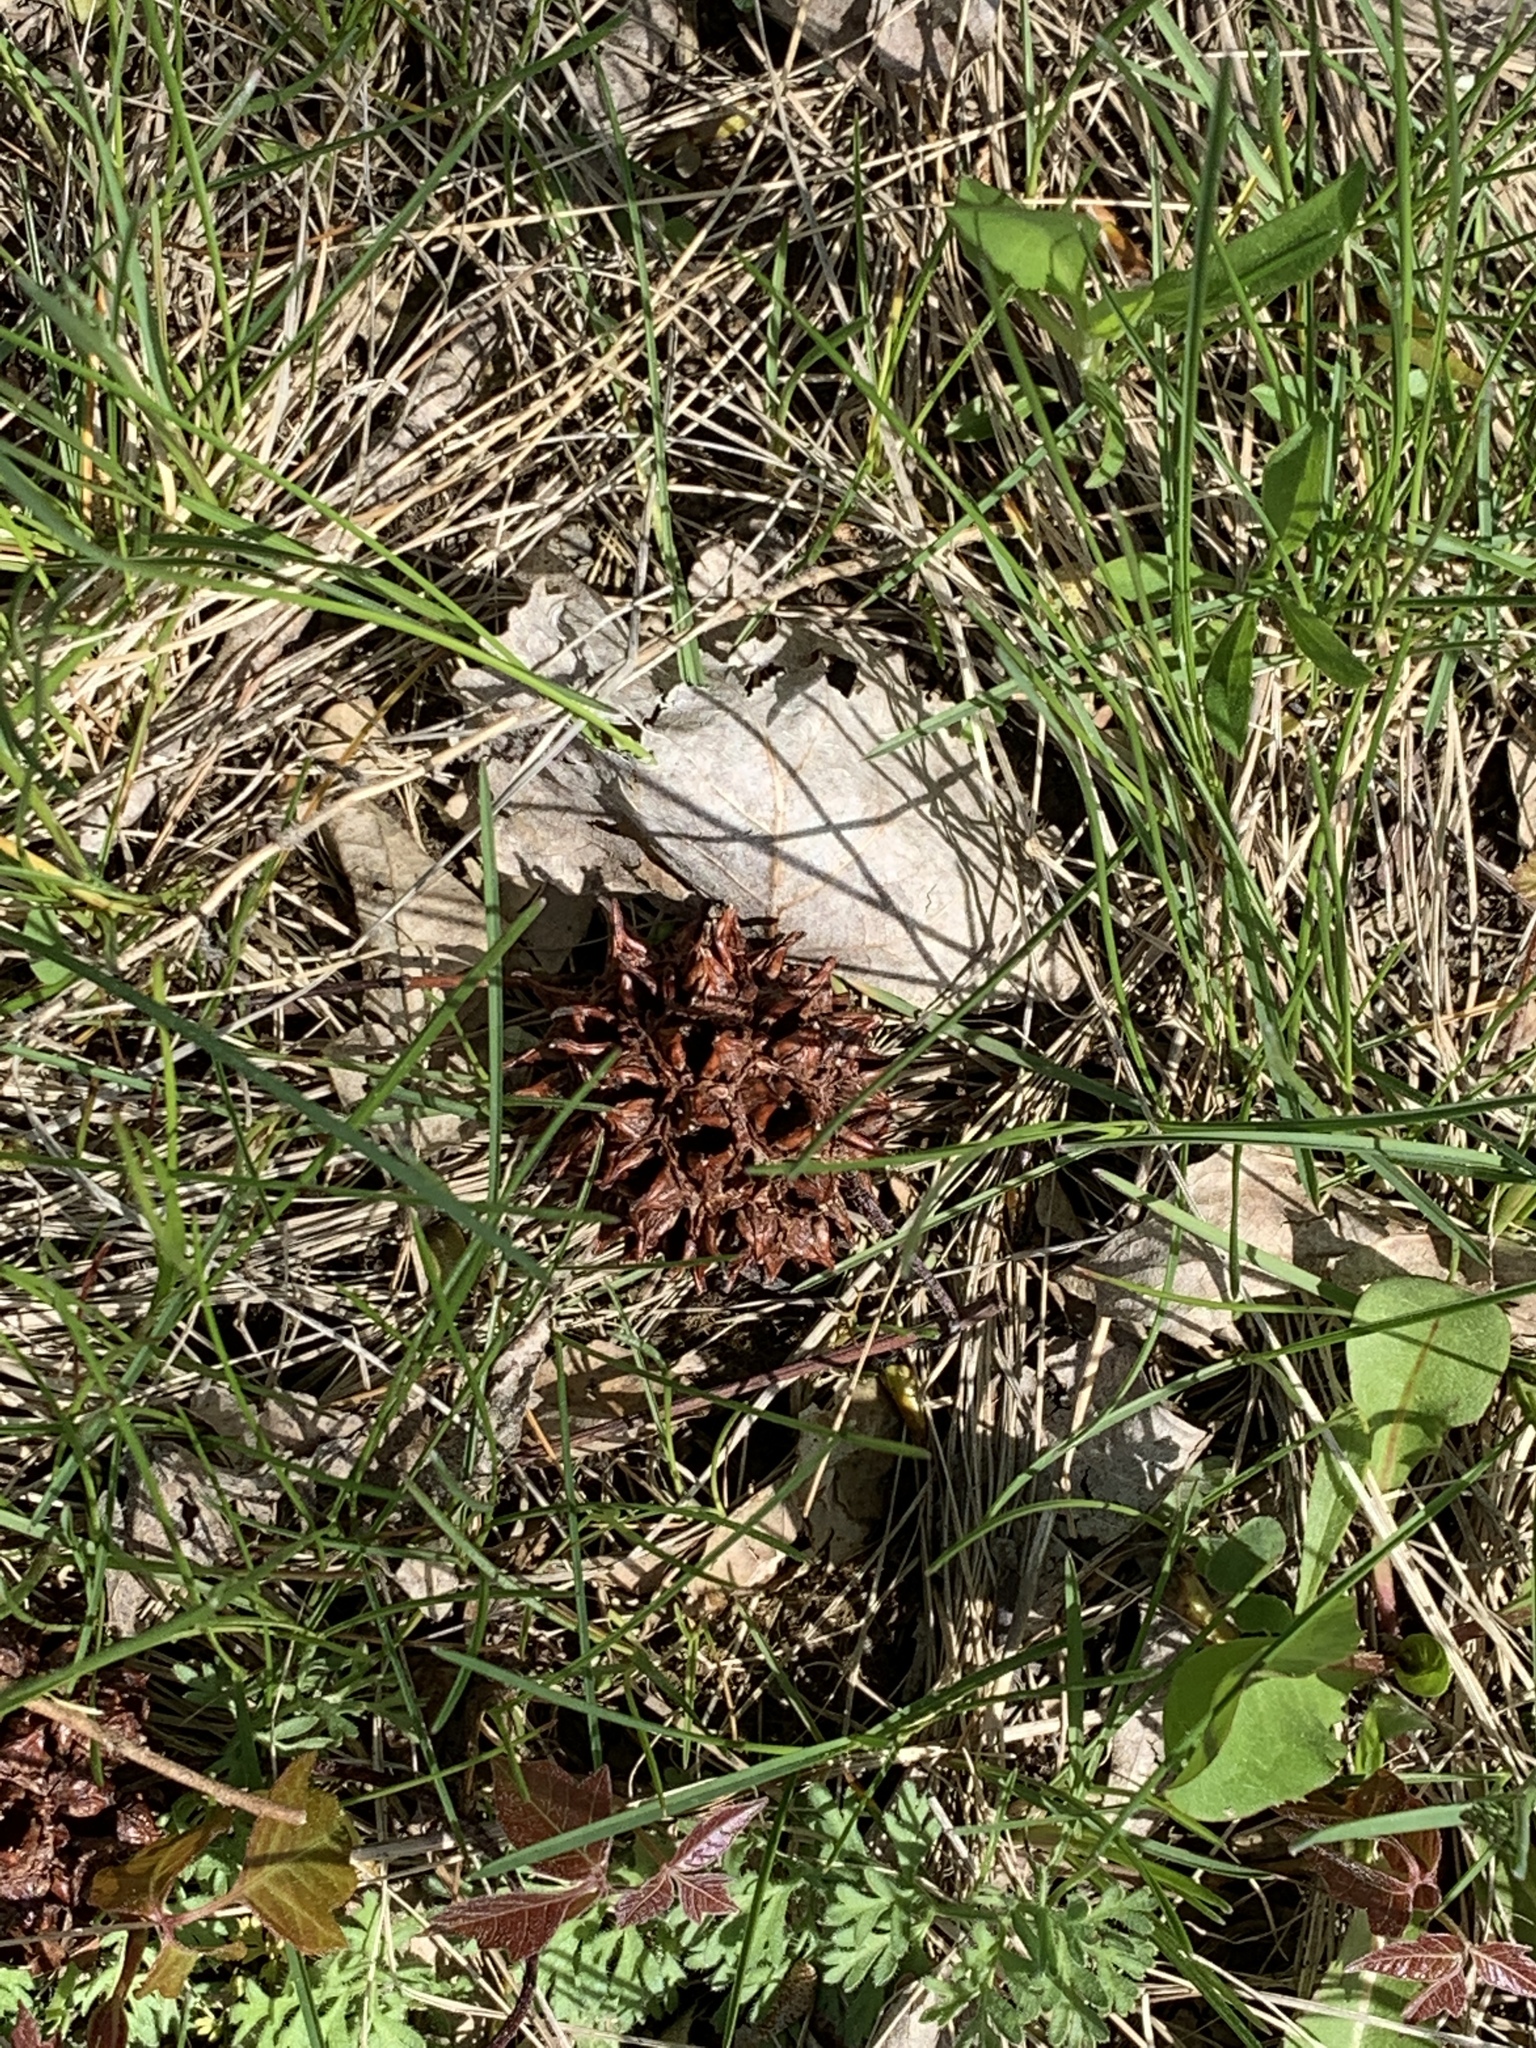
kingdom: Plantae
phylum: Tracheophyta
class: Magnoliopsida
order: Saxifragales
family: Altingiaceae
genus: Liquidambar
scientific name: Liquidambar styraciflua
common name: Sweet gum
